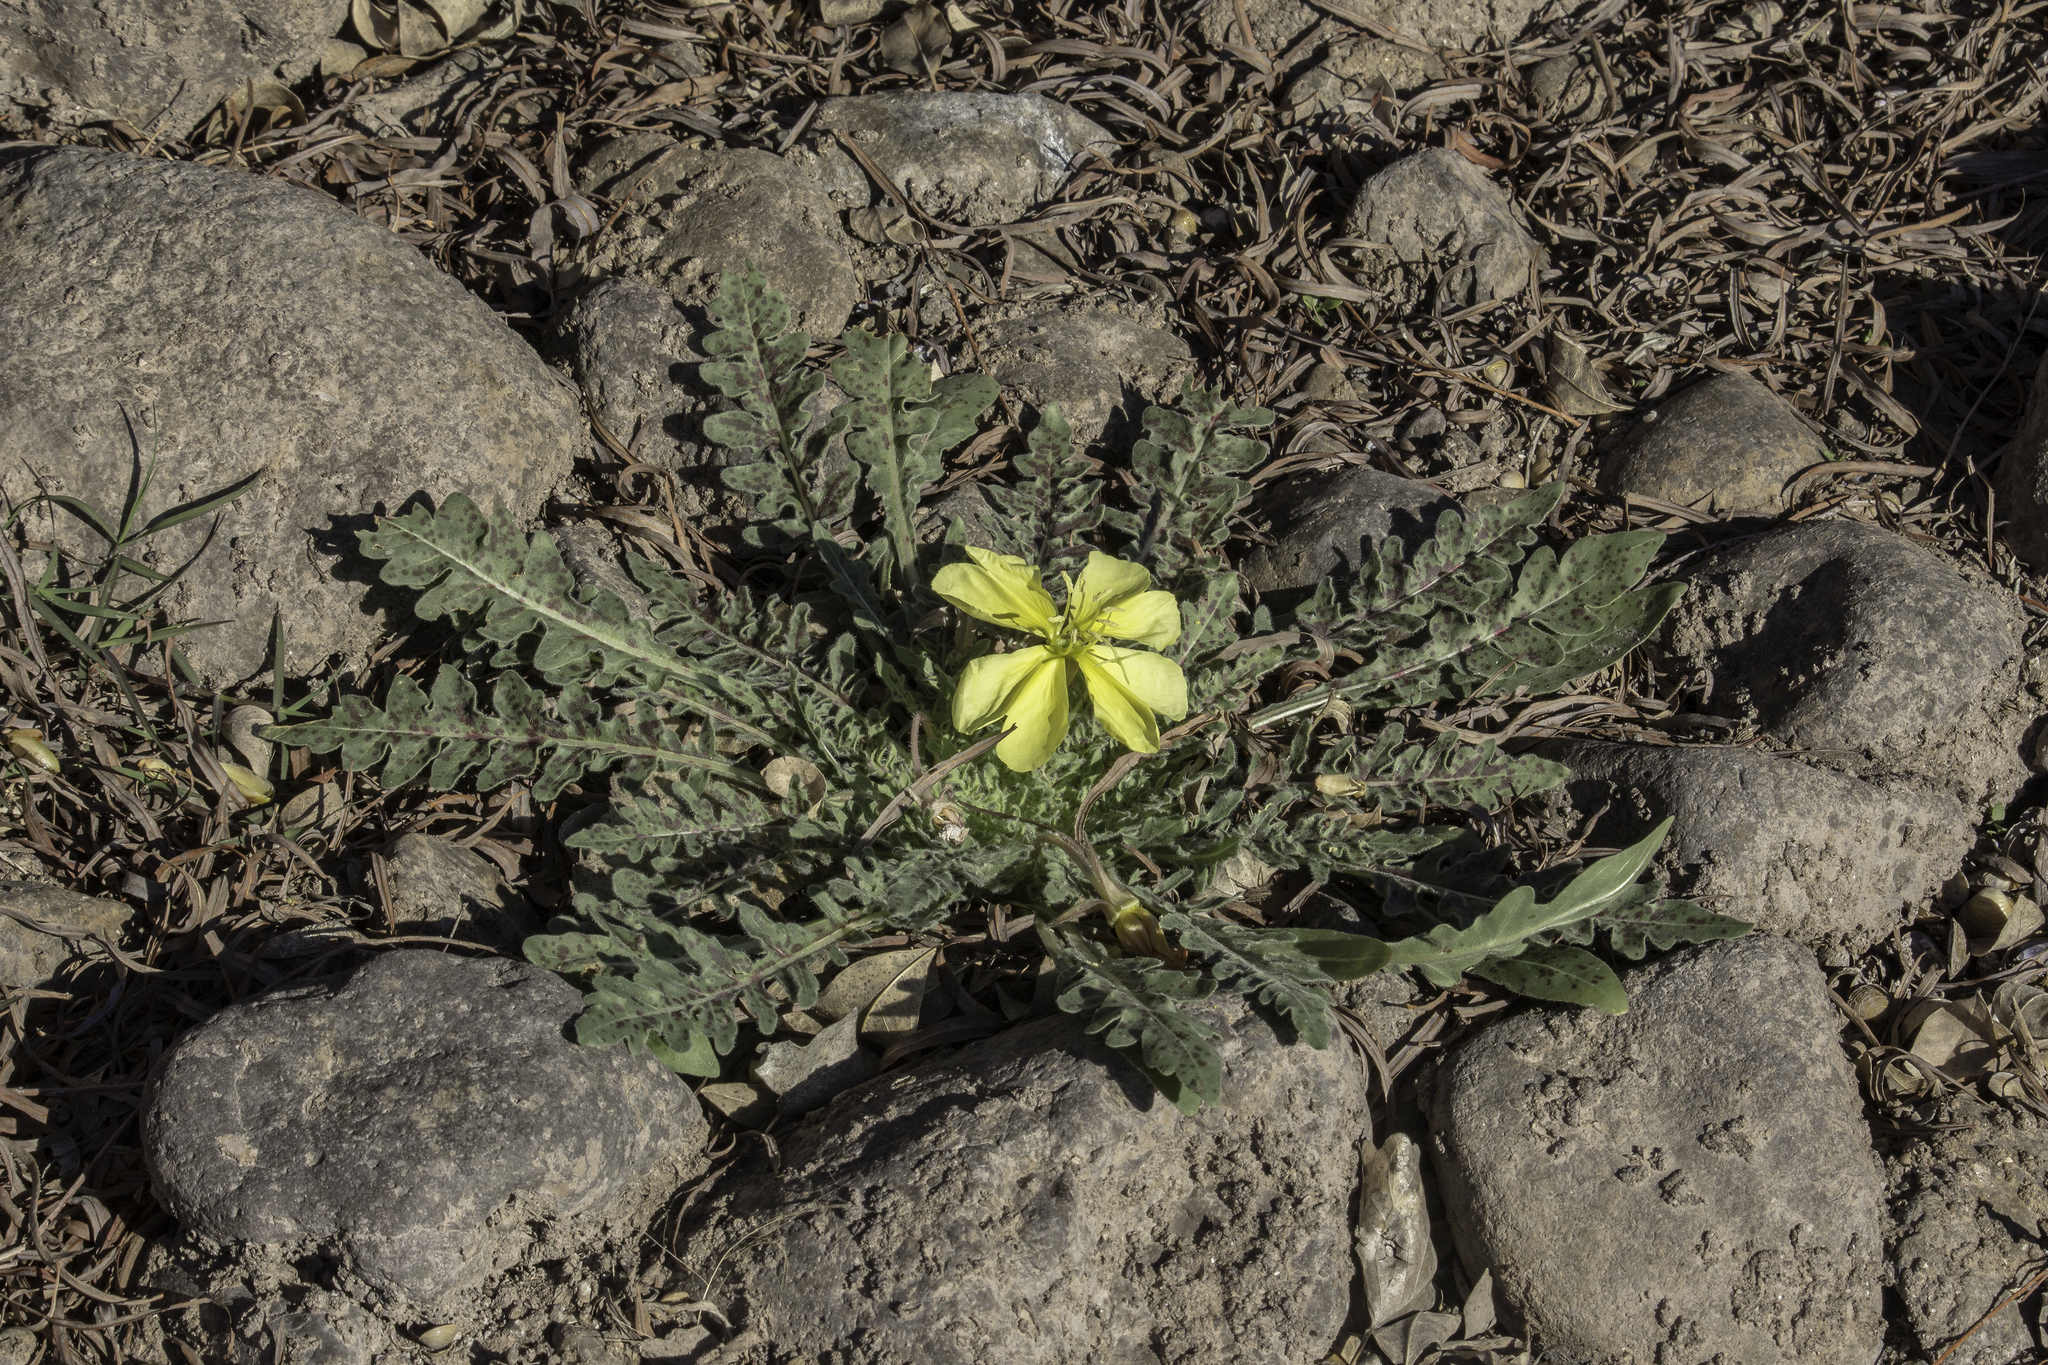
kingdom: Plantae
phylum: Tracheophyta
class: Magnoliopsida
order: Myrtales
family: Onagraceae
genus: Oenothera
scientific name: Oenothera primiveris
